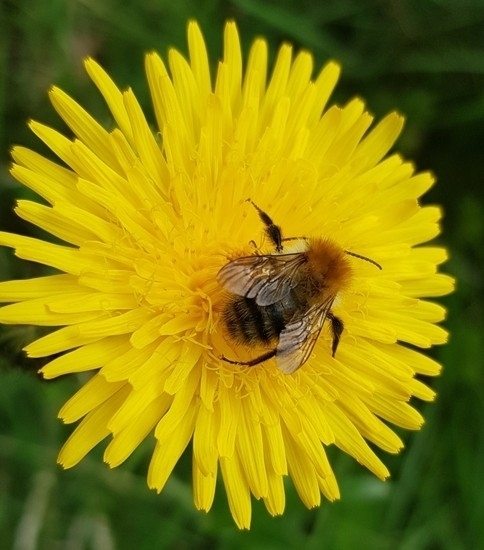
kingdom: Animalia
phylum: Arthropoda
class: Insecta
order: Hymenoptera
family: Apidae
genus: Bombus
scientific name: Bombus pascuorum
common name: Common carder bee
